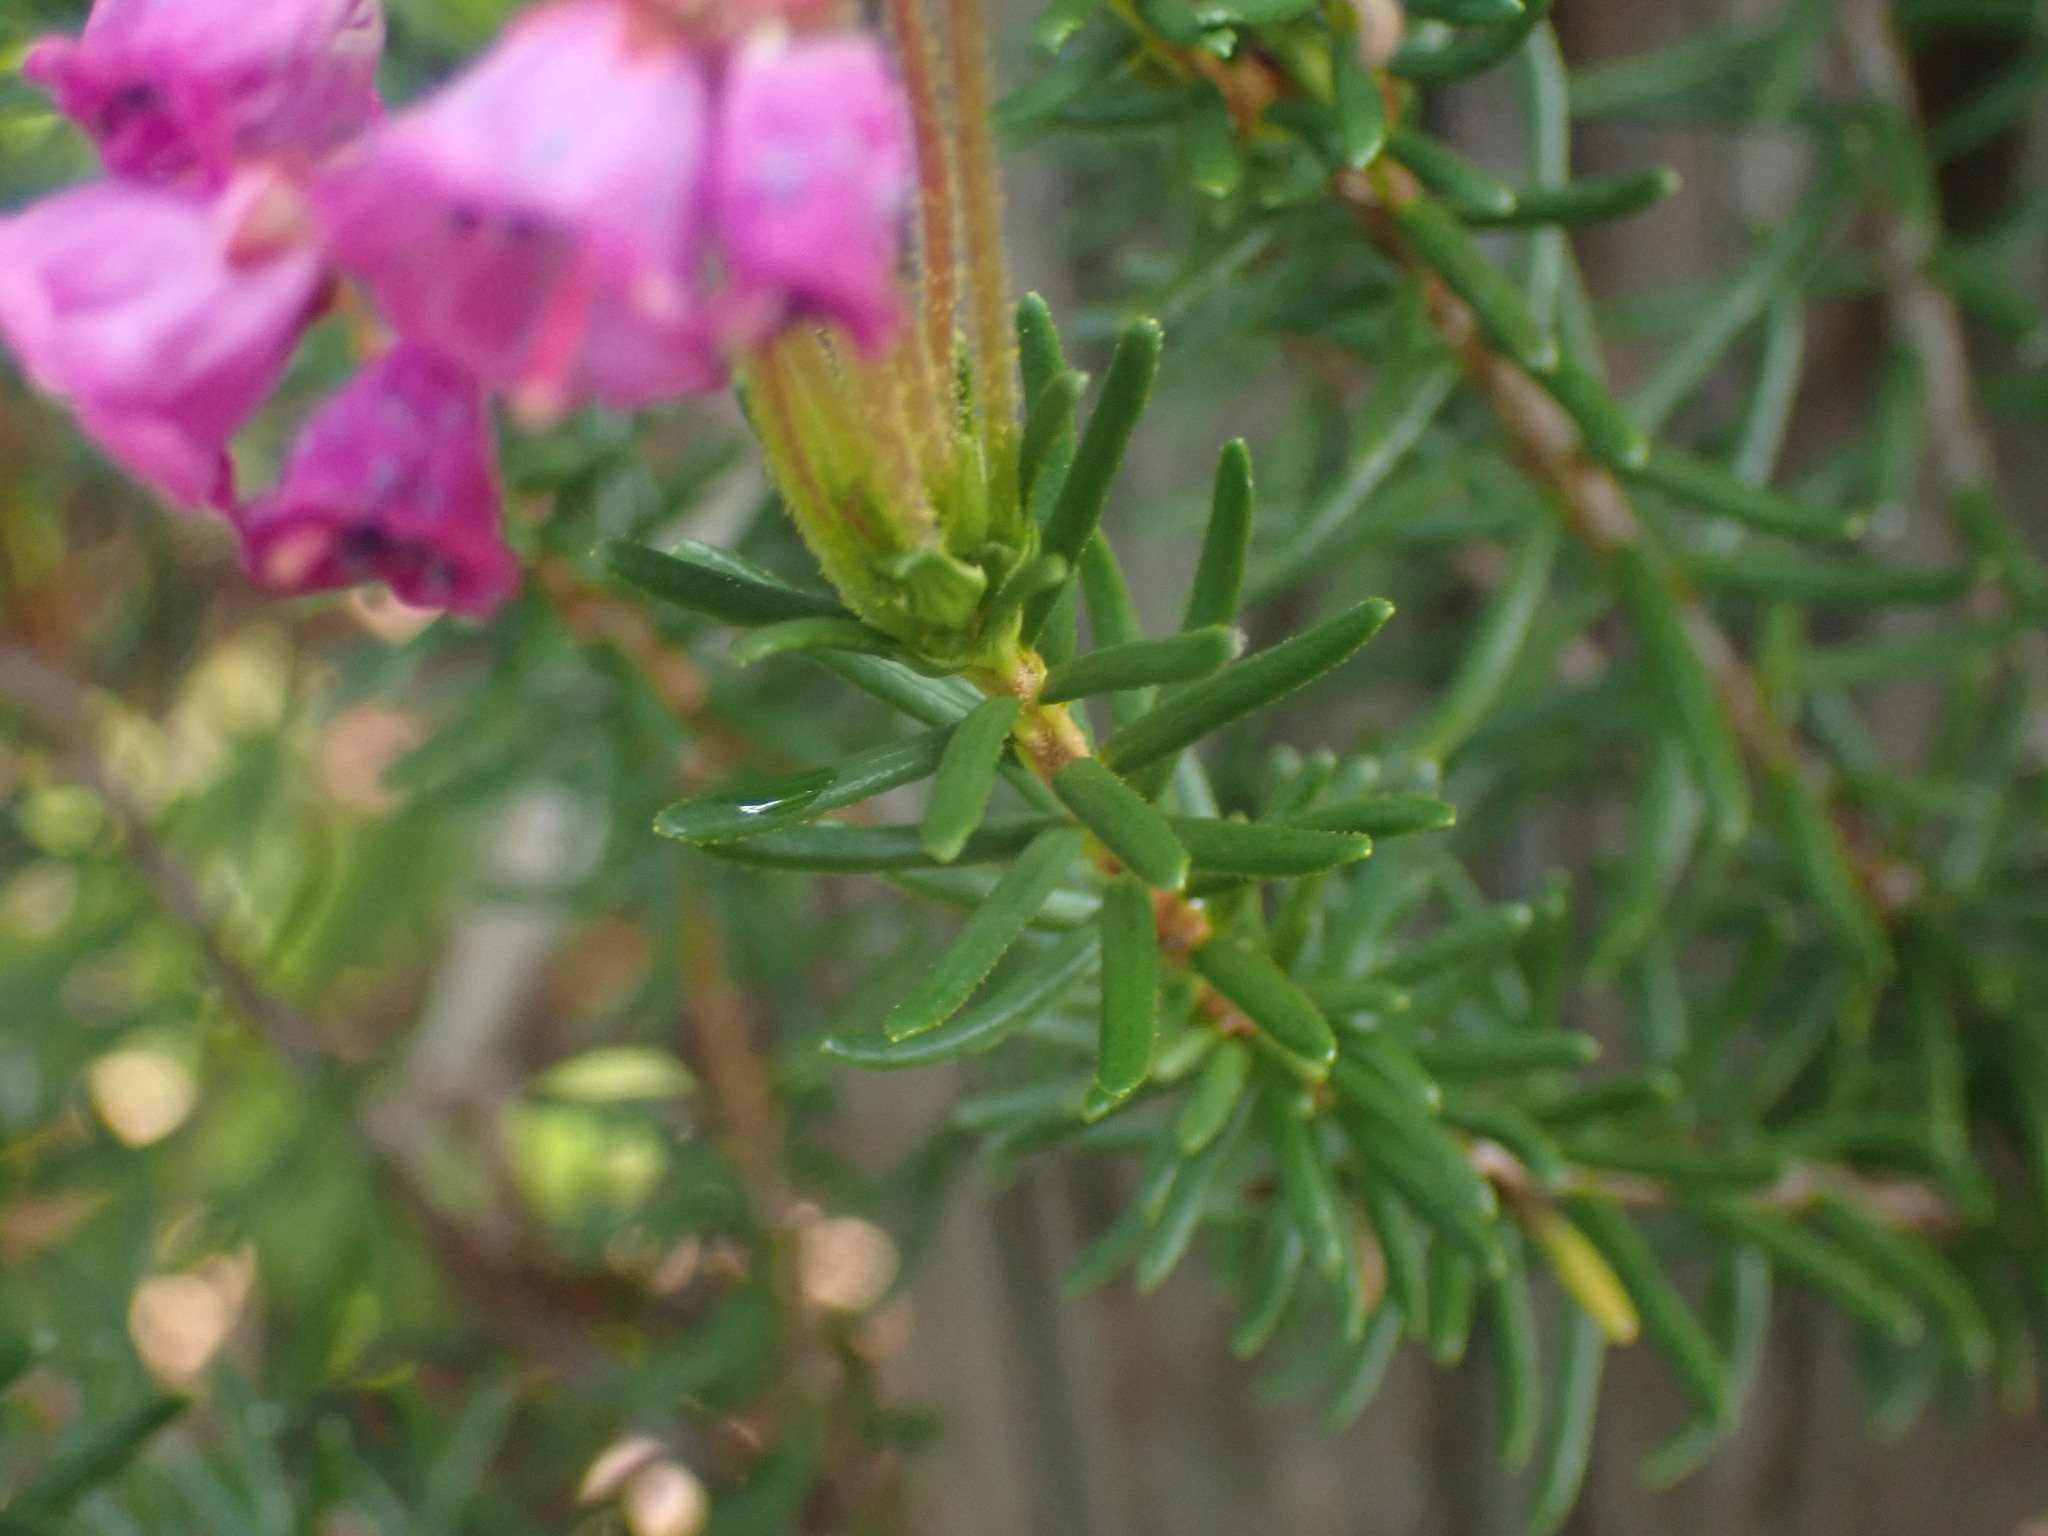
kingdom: Plantae
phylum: Tracheophyta
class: Magnoliopsida
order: Ericales
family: Ericaceae
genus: Phyllodoce
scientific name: Phyllodoce empetriformis
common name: Pink mountain heather
